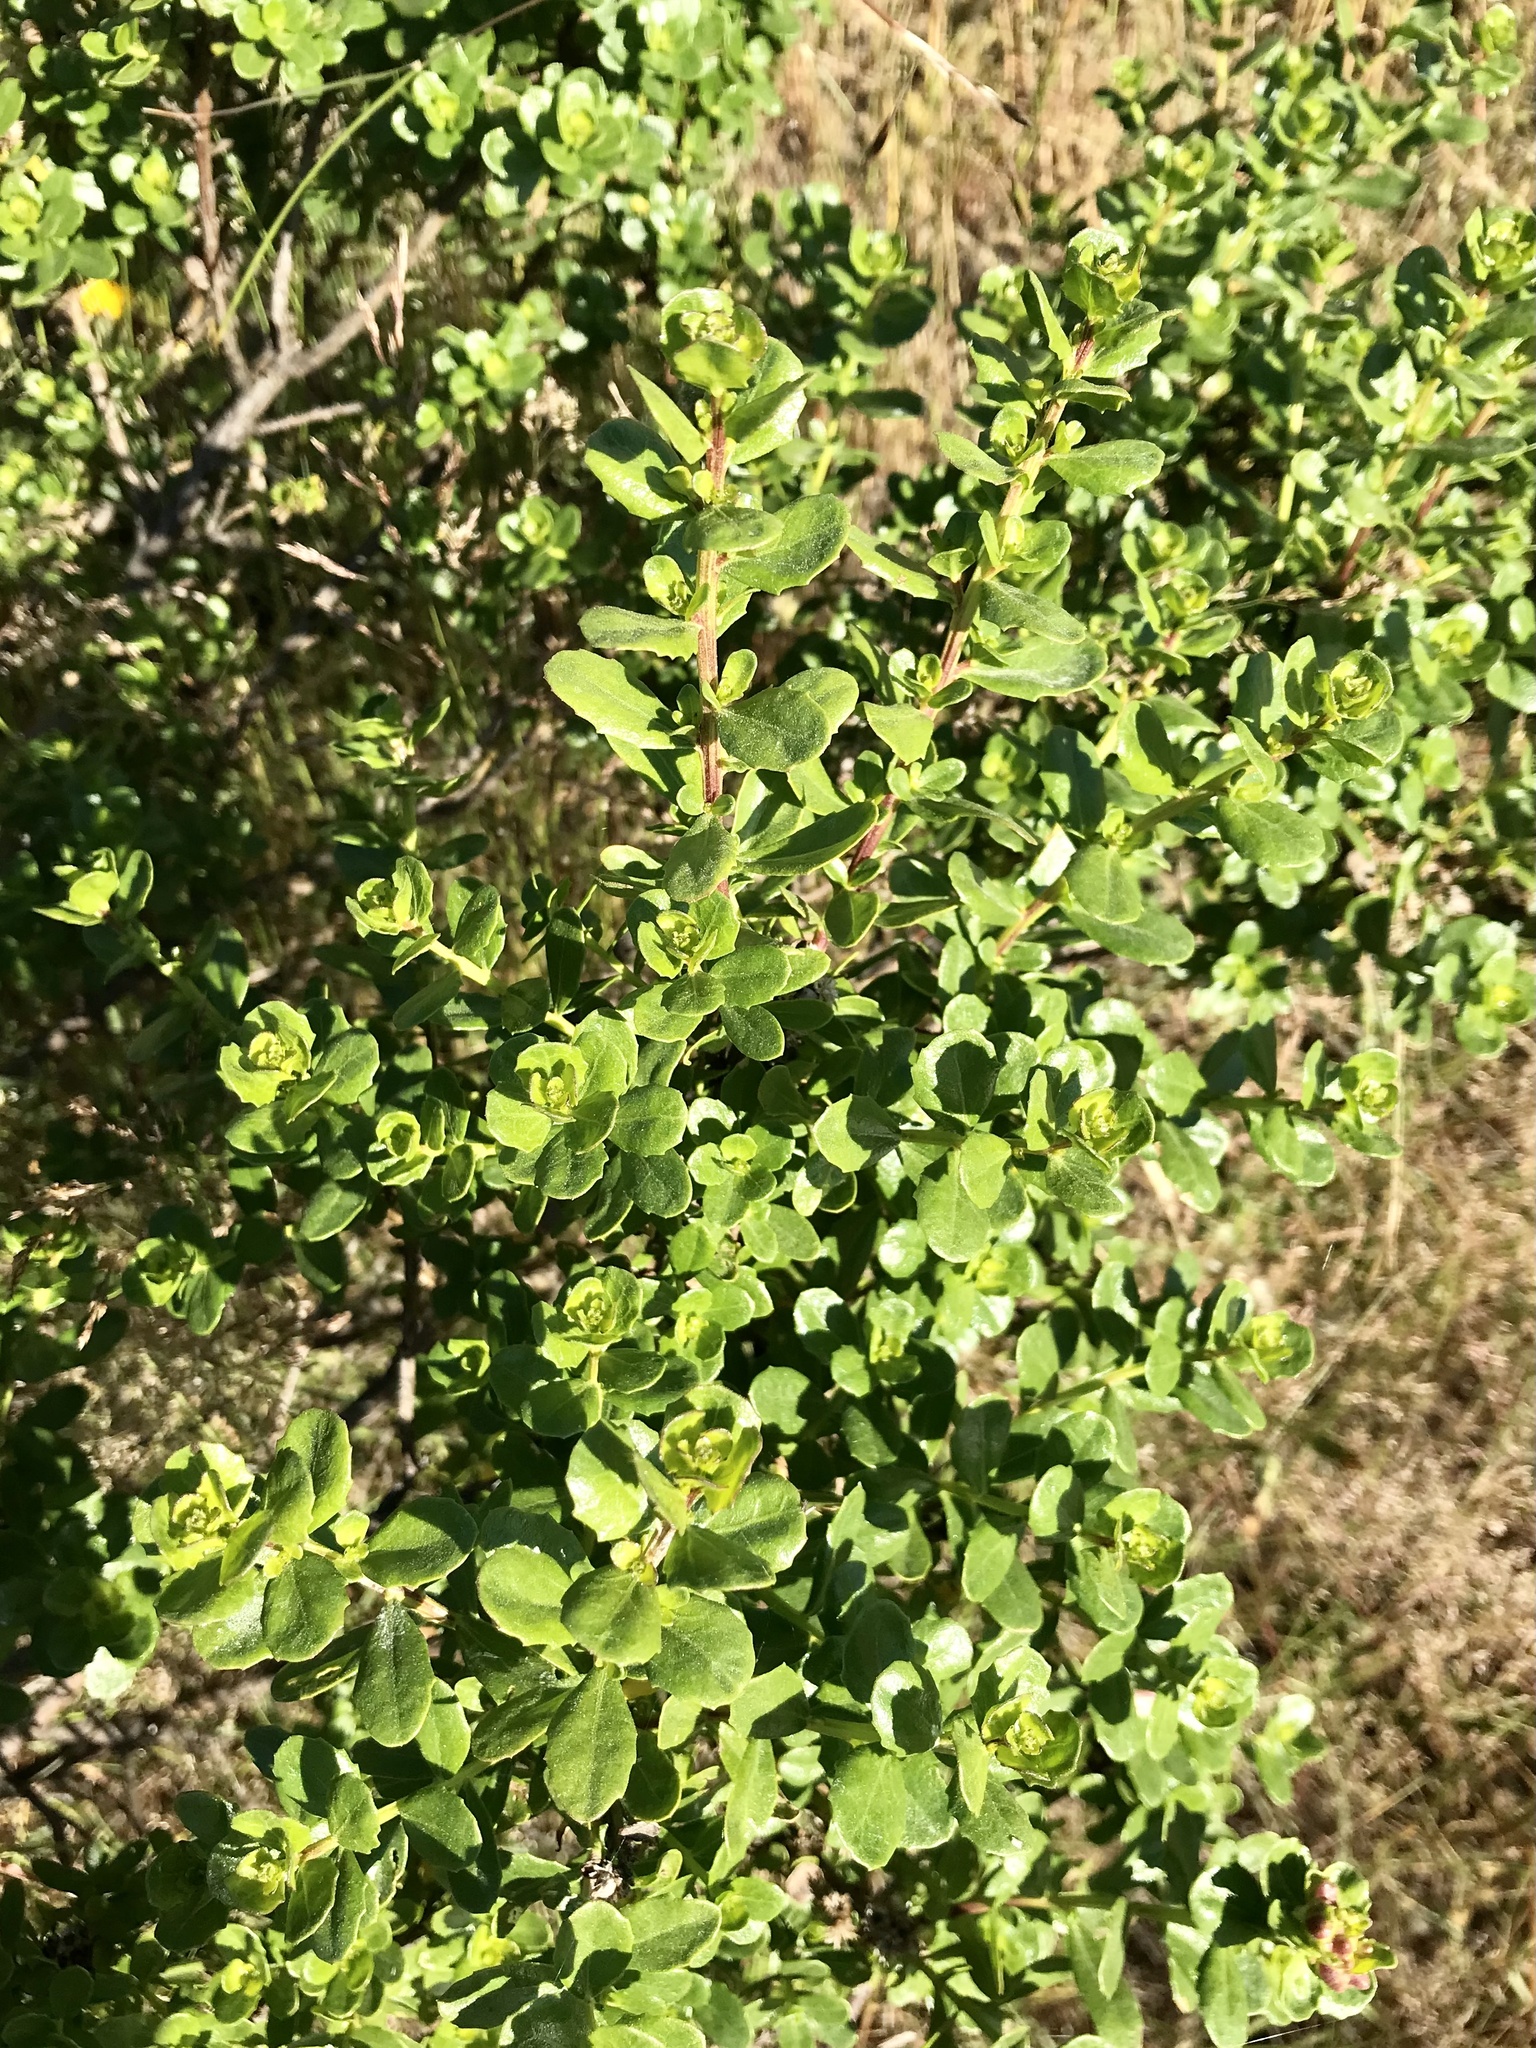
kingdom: Plantae
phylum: Tracheophyta
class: Magnoliopsida
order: Asterales
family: Asteraceae
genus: Baccharis
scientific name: Baccharis pilularis
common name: Coyotebrush
